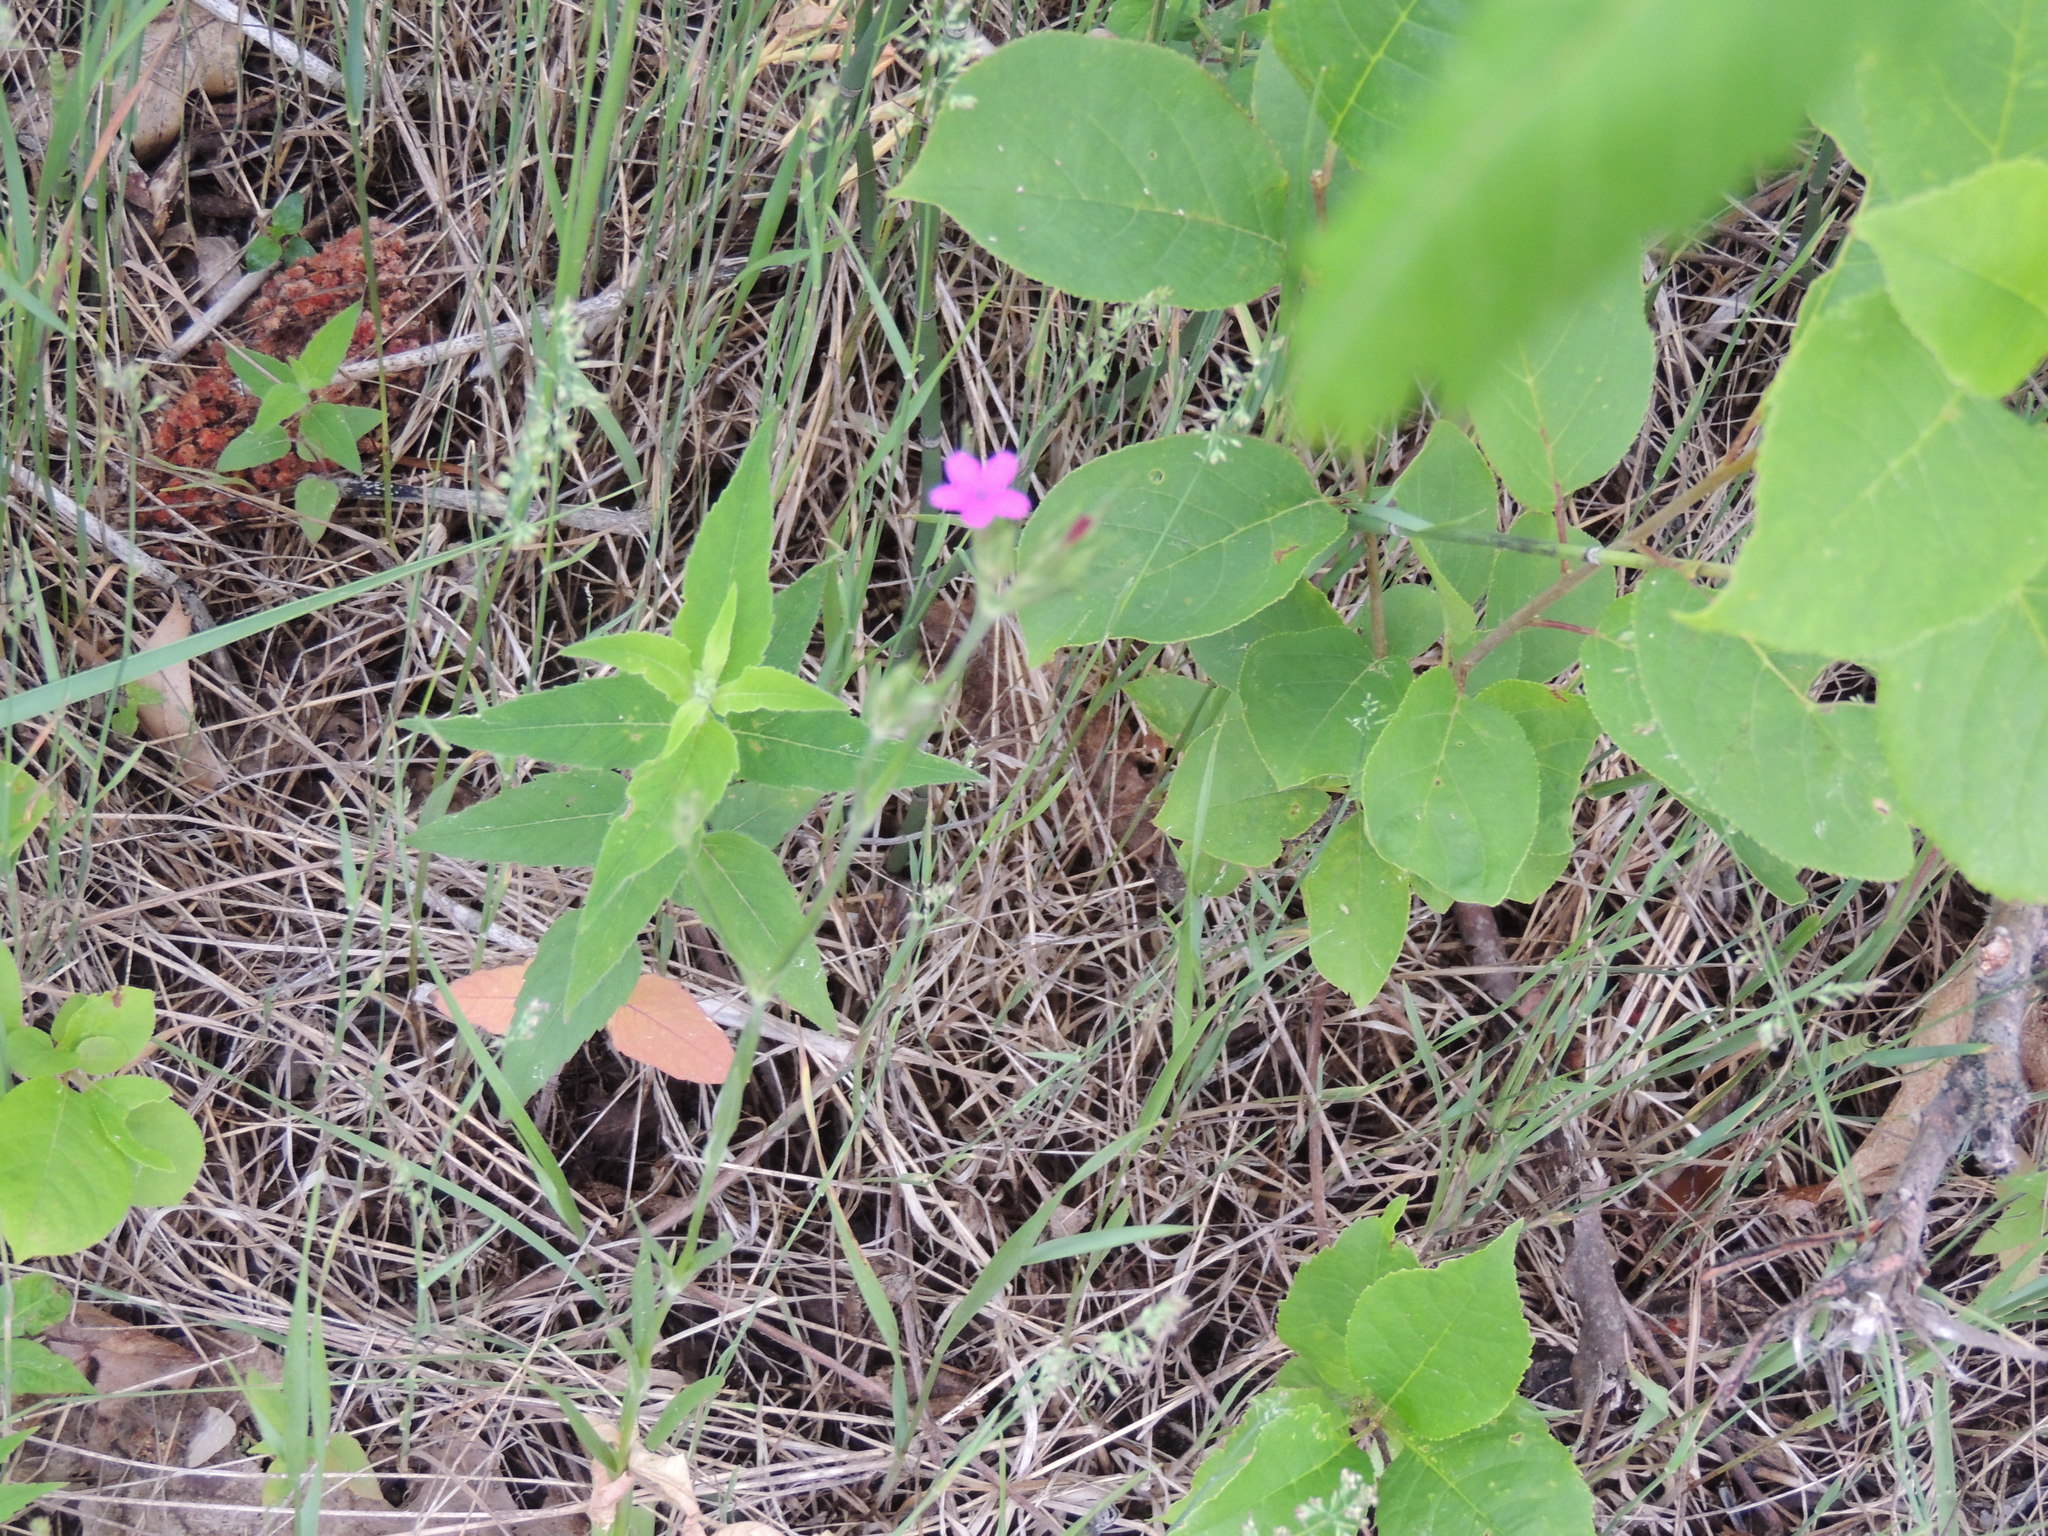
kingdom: Plantae
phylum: Tracheophyta
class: Magnoliopsida
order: Caryophyllales
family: Caryophyllaceae
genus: Dianthus
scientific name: Dianthus armeria
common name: Deptford pink
